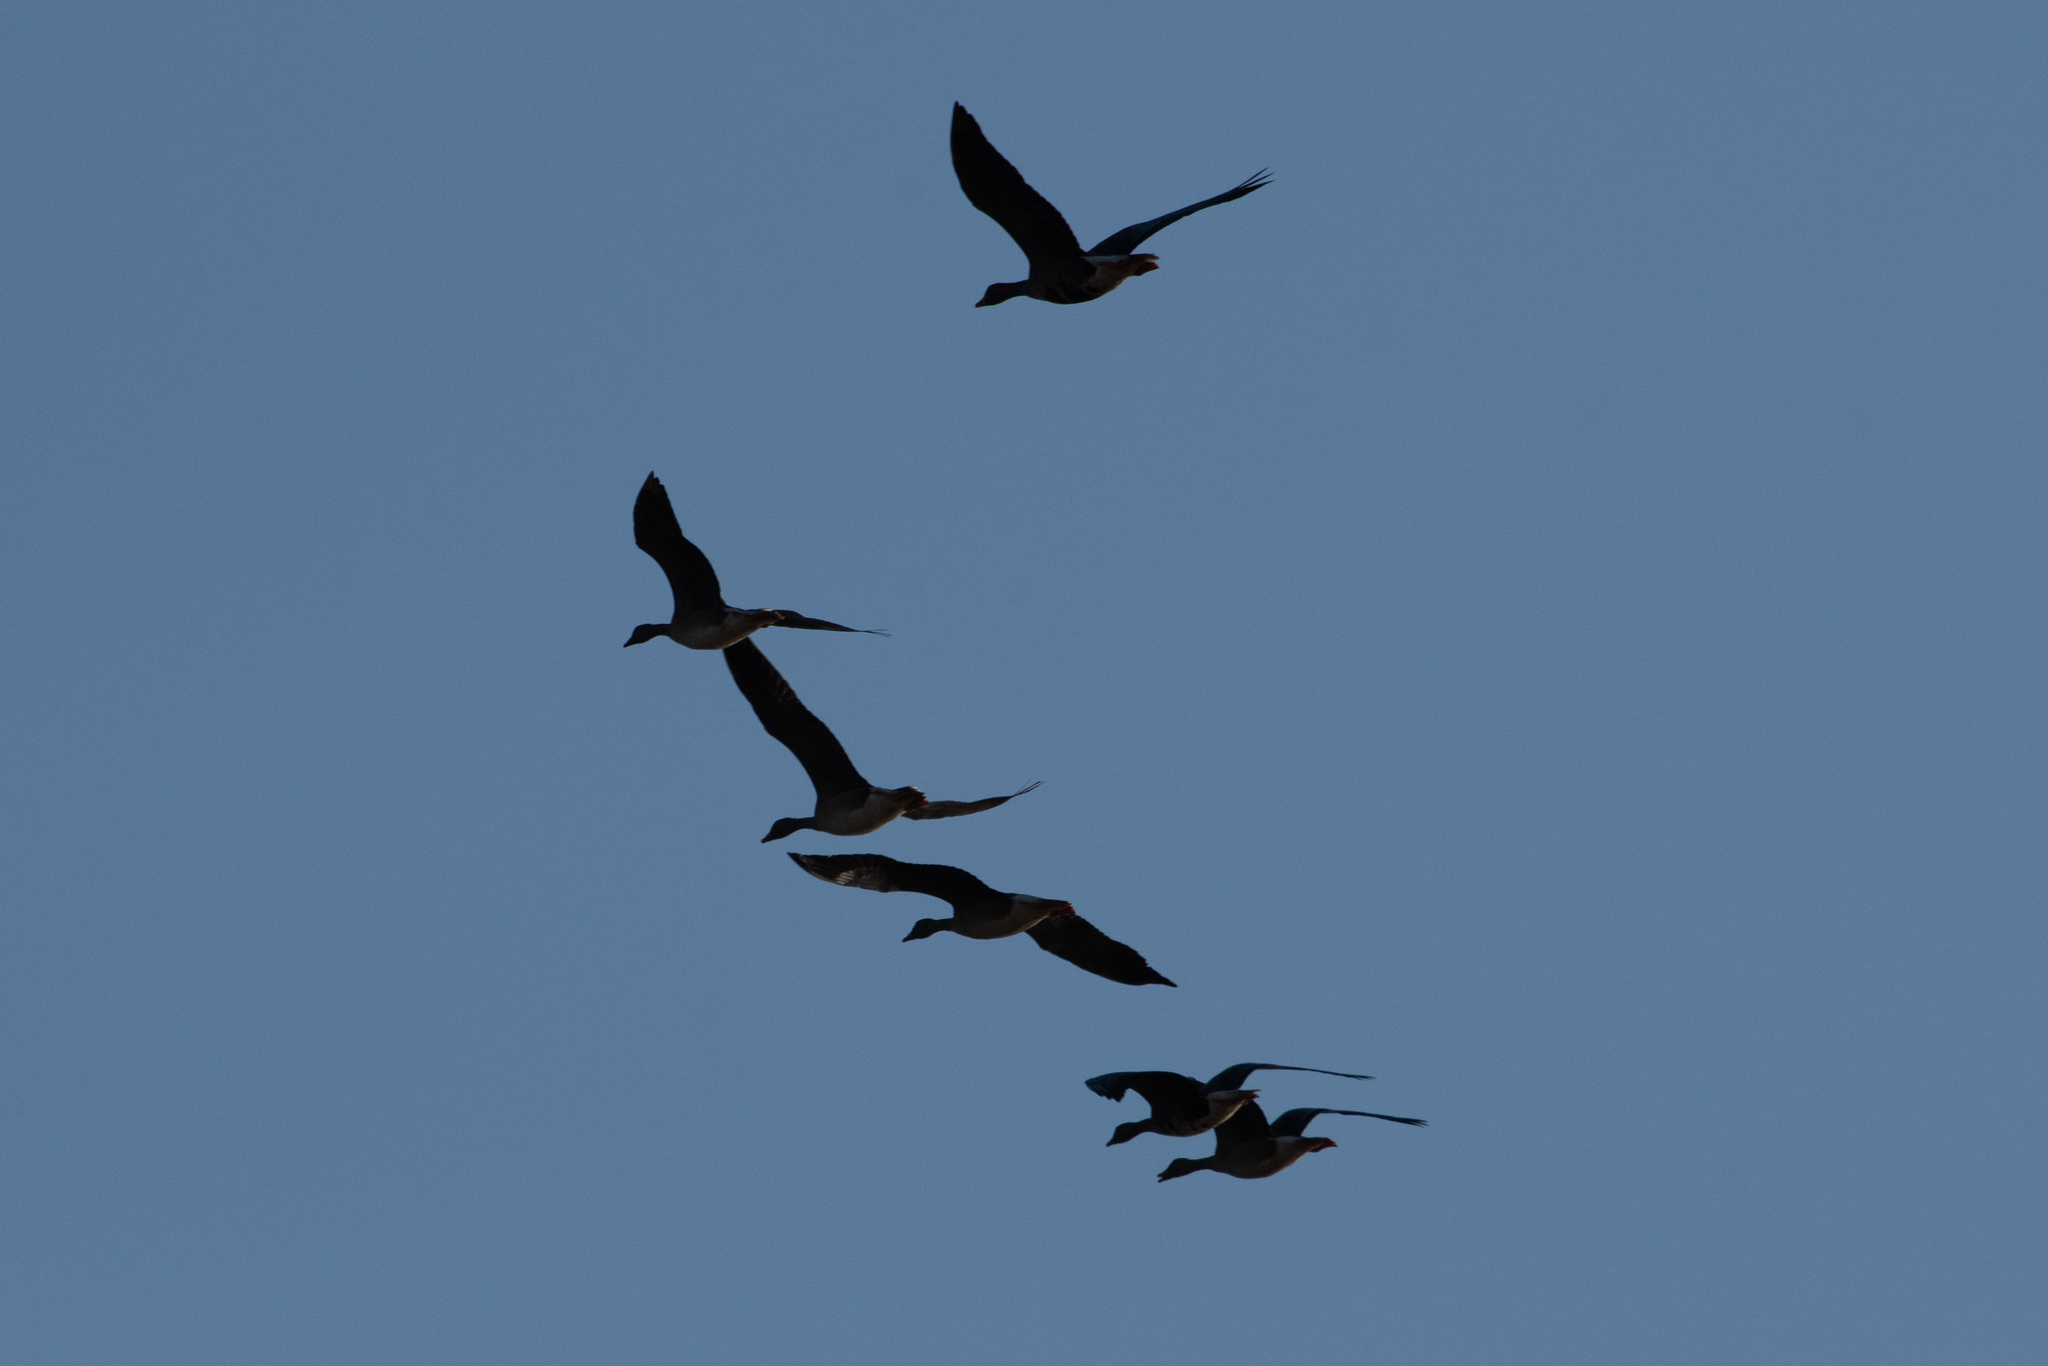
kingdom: Animalia
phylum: Chordata
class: Aves
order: Anseriformes
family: Anatidae
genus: Anser
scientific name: Anser albifrons
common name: Greater white-fronted goose
